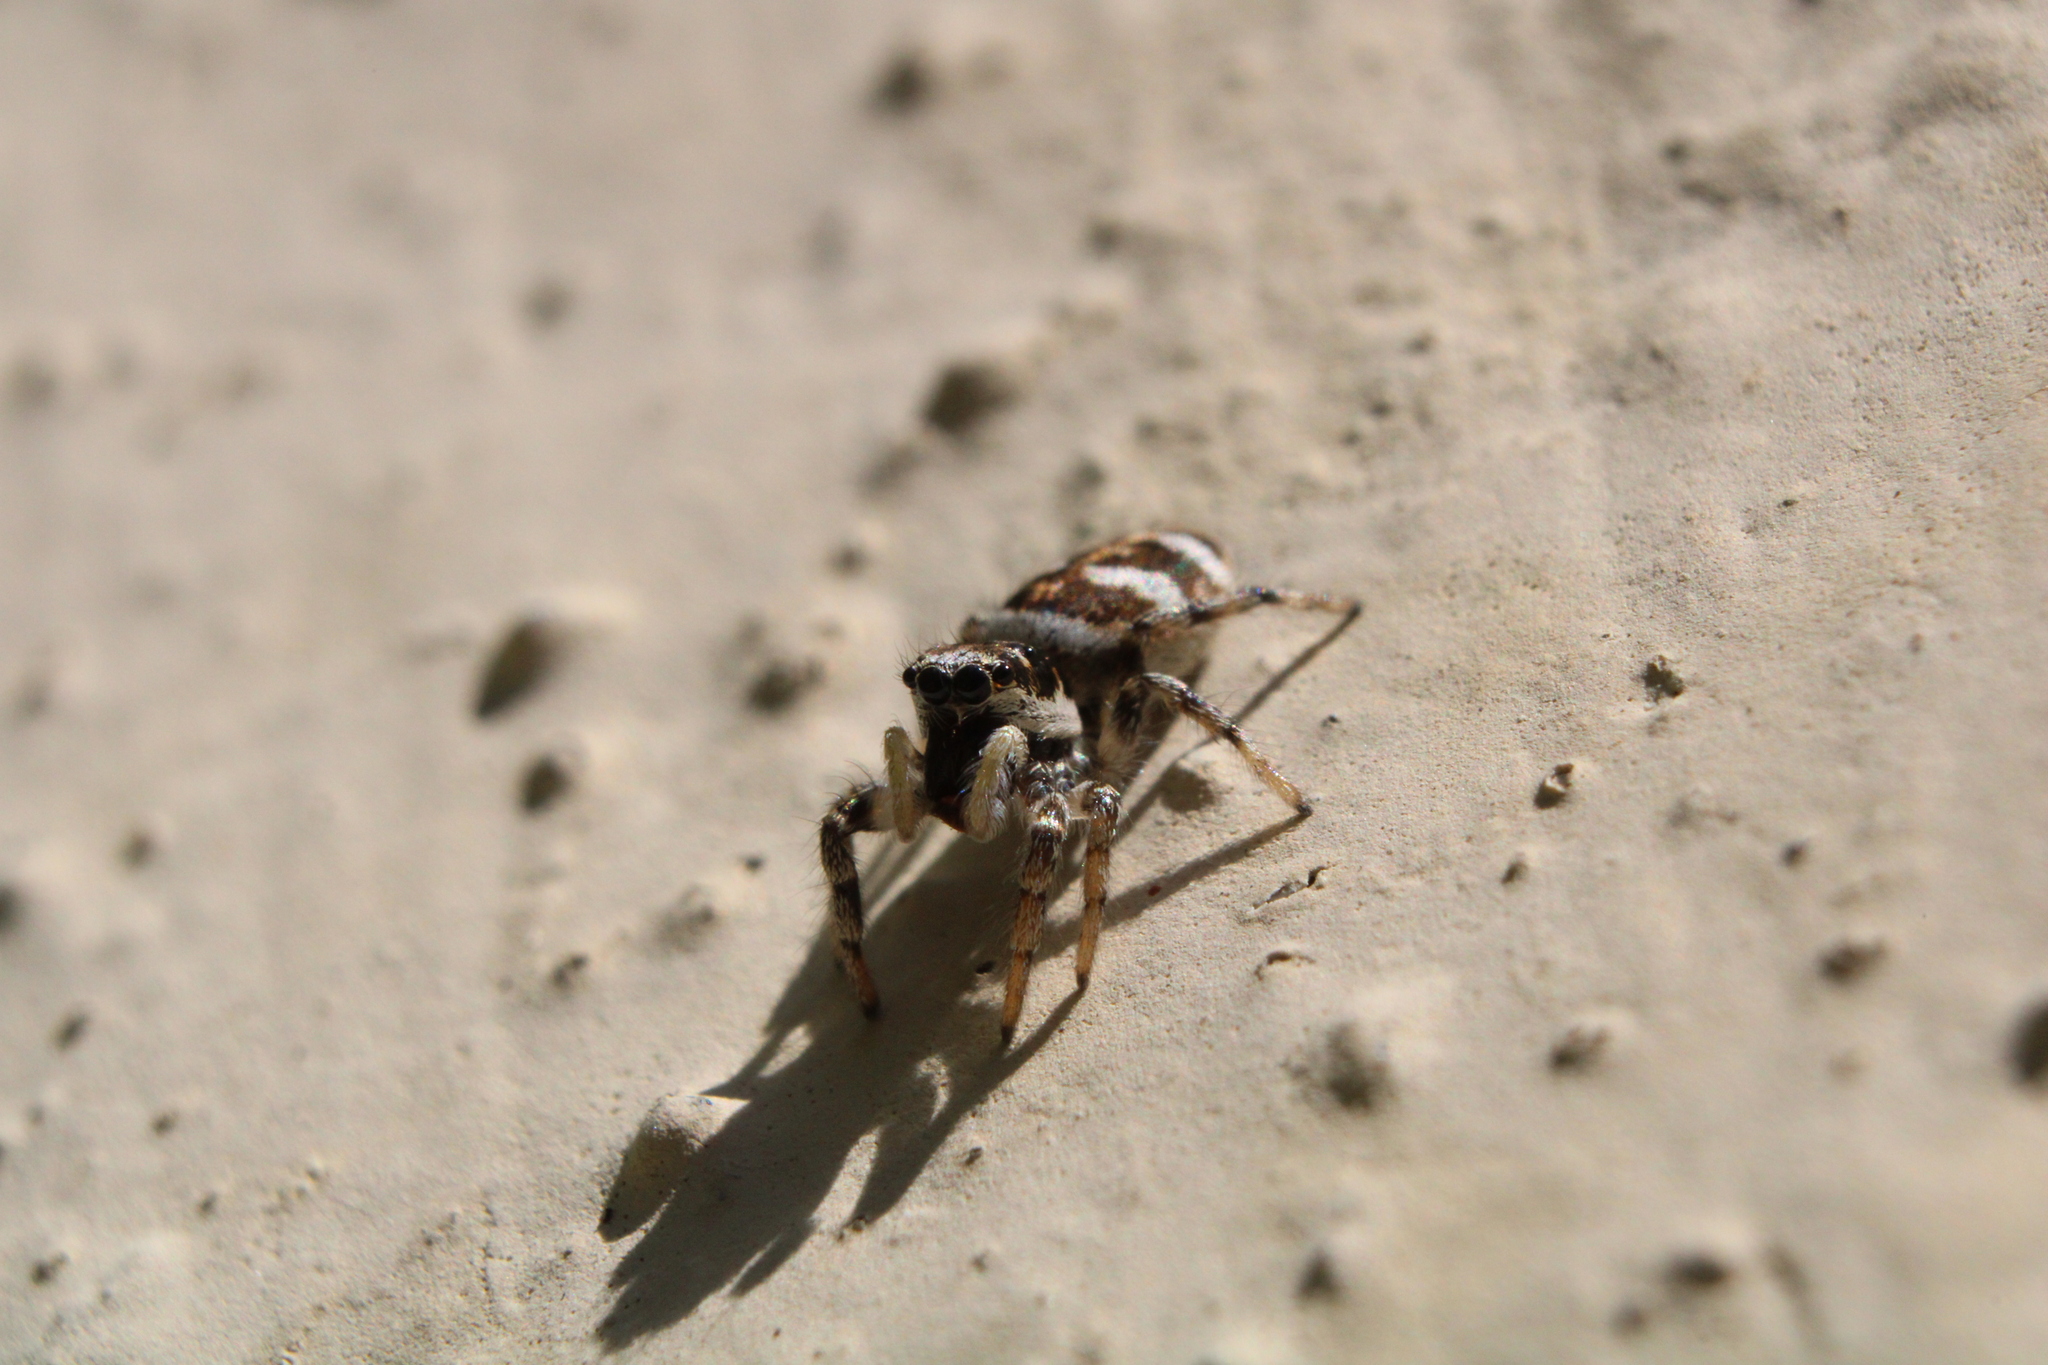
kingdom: Animalia
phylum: Arthropoda
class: Arachnida
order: Araneae
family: Salticidae
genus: Salticus
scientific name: Salticus scenicus
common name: Zebra jumper
